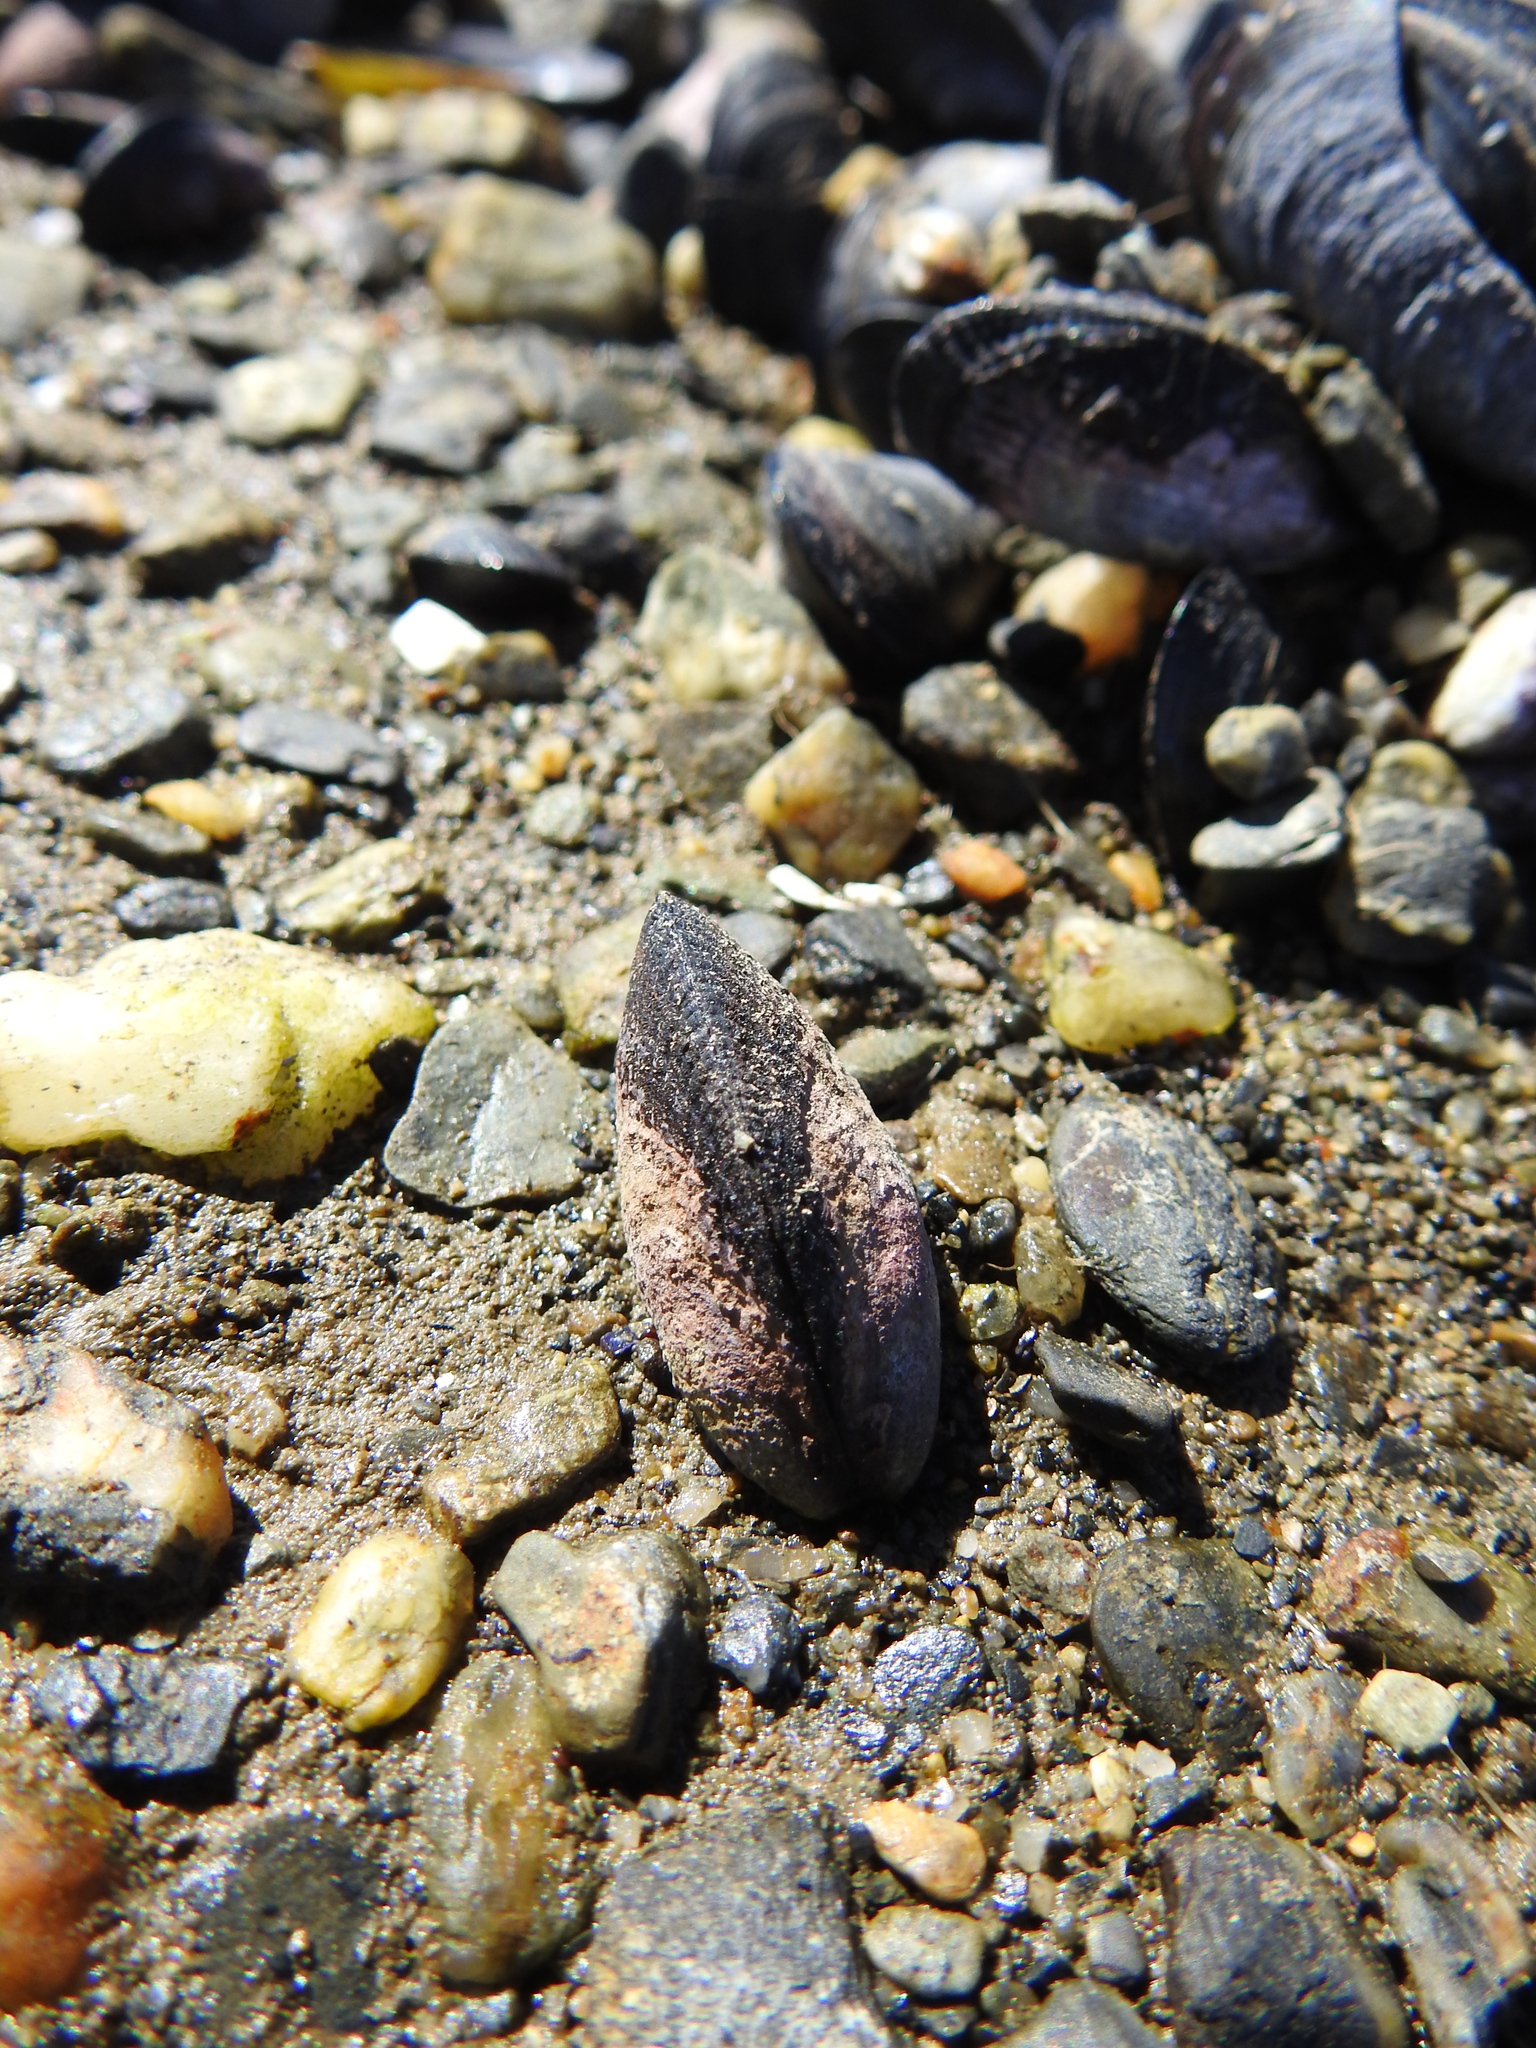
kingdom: Animalia
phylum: Mollusca
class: Bivalvia
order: Mytilida
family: Mytilidae
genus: Perumytilus
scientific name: Perumytilus purpuratus
